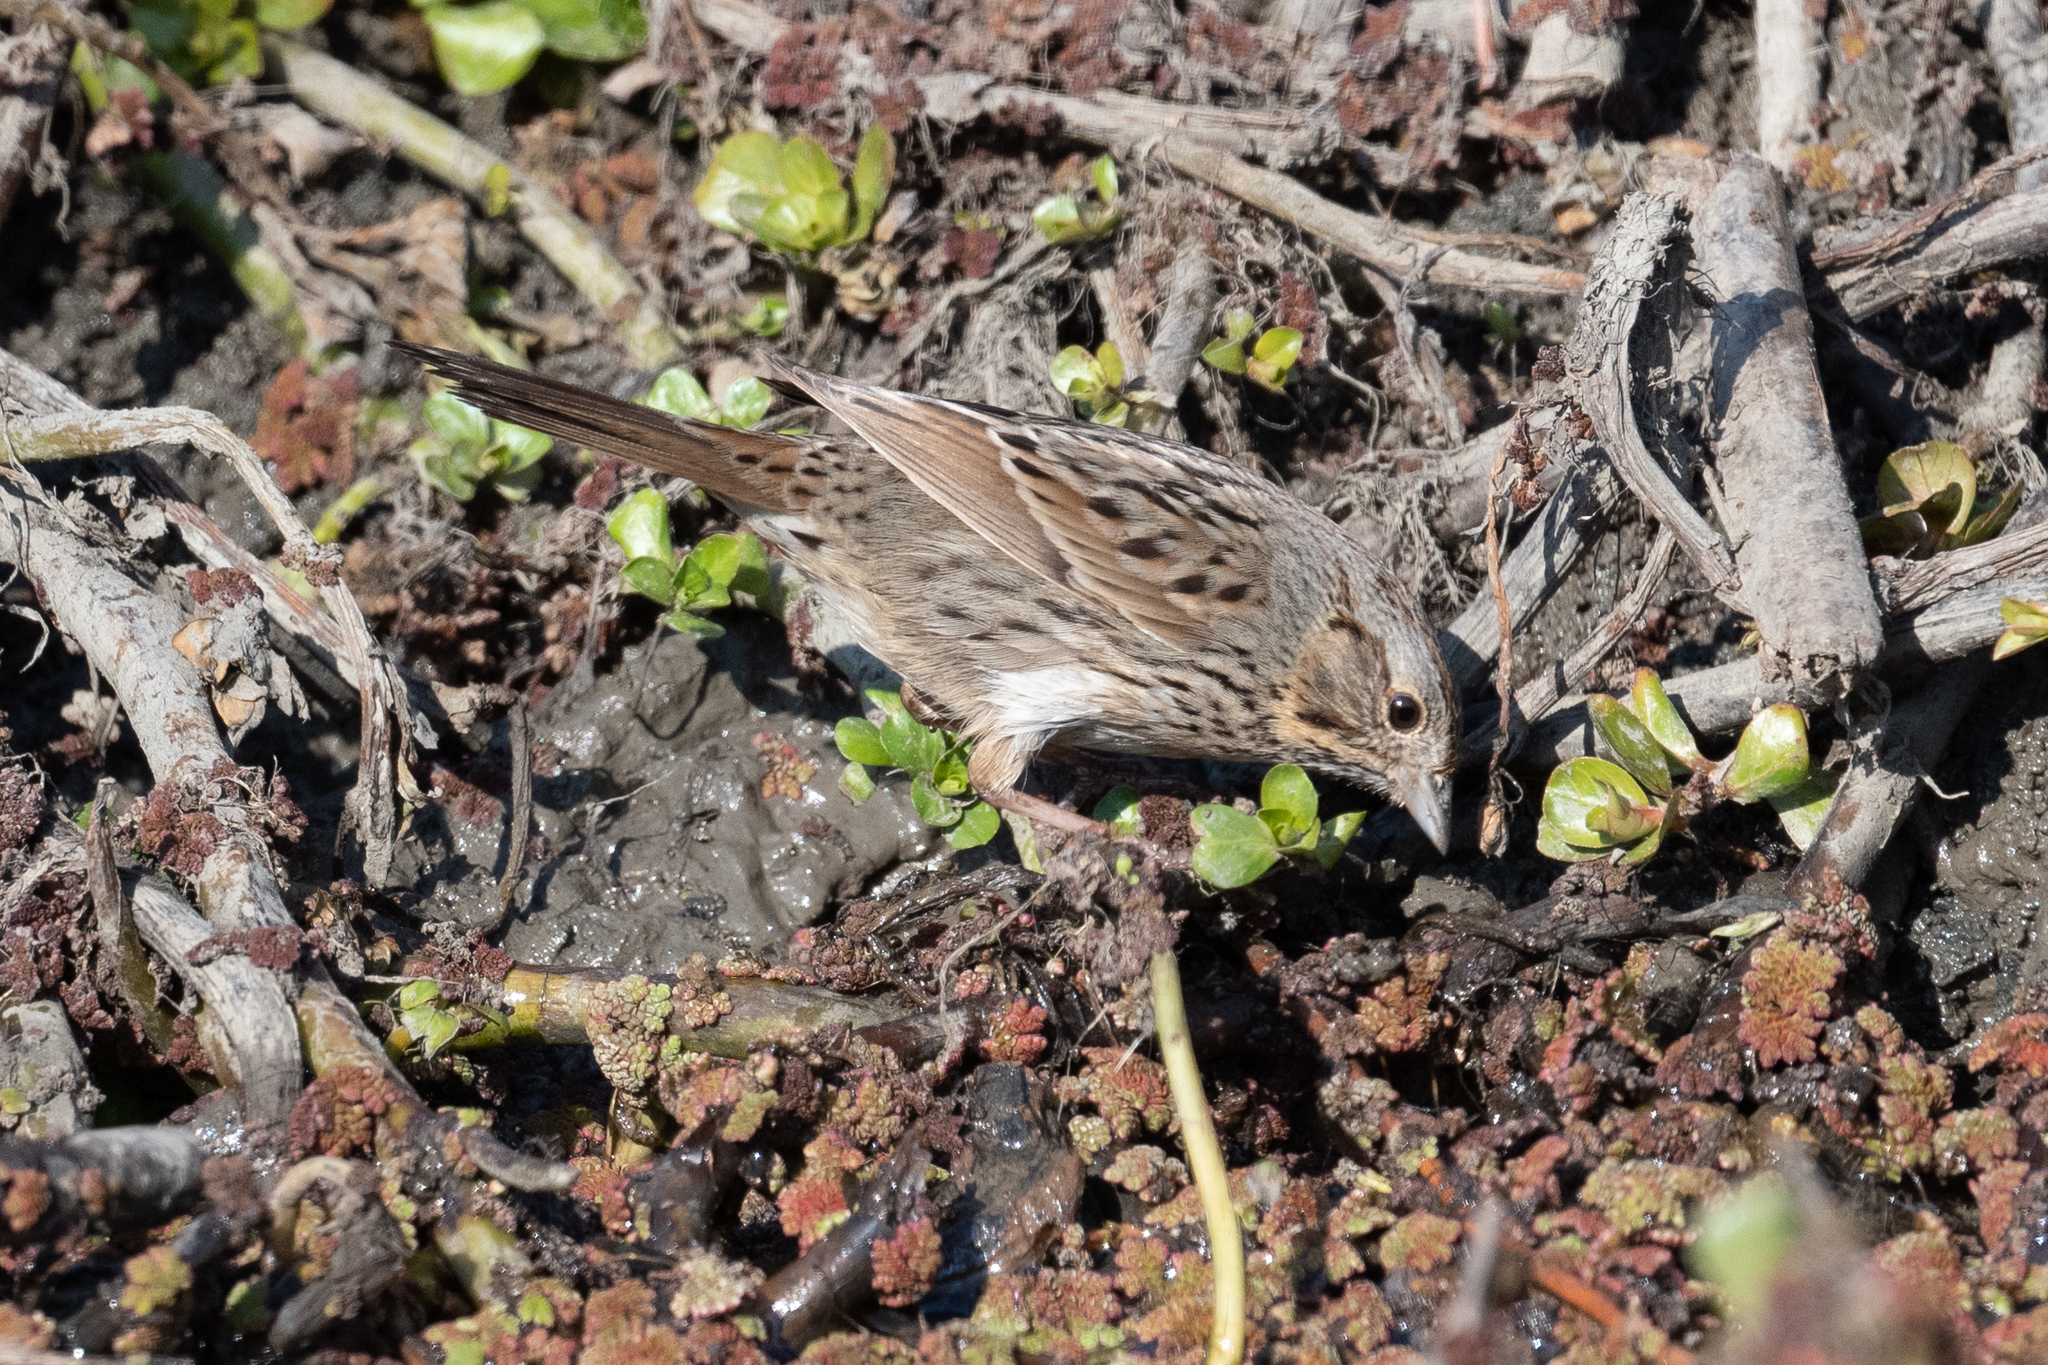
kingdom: Animalia
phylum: Chordata
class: Aves
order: Passeriformes
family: Passerellidae
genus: Melospiza
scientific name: Melospiza lincolnii
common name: Lincoln's sparrow
